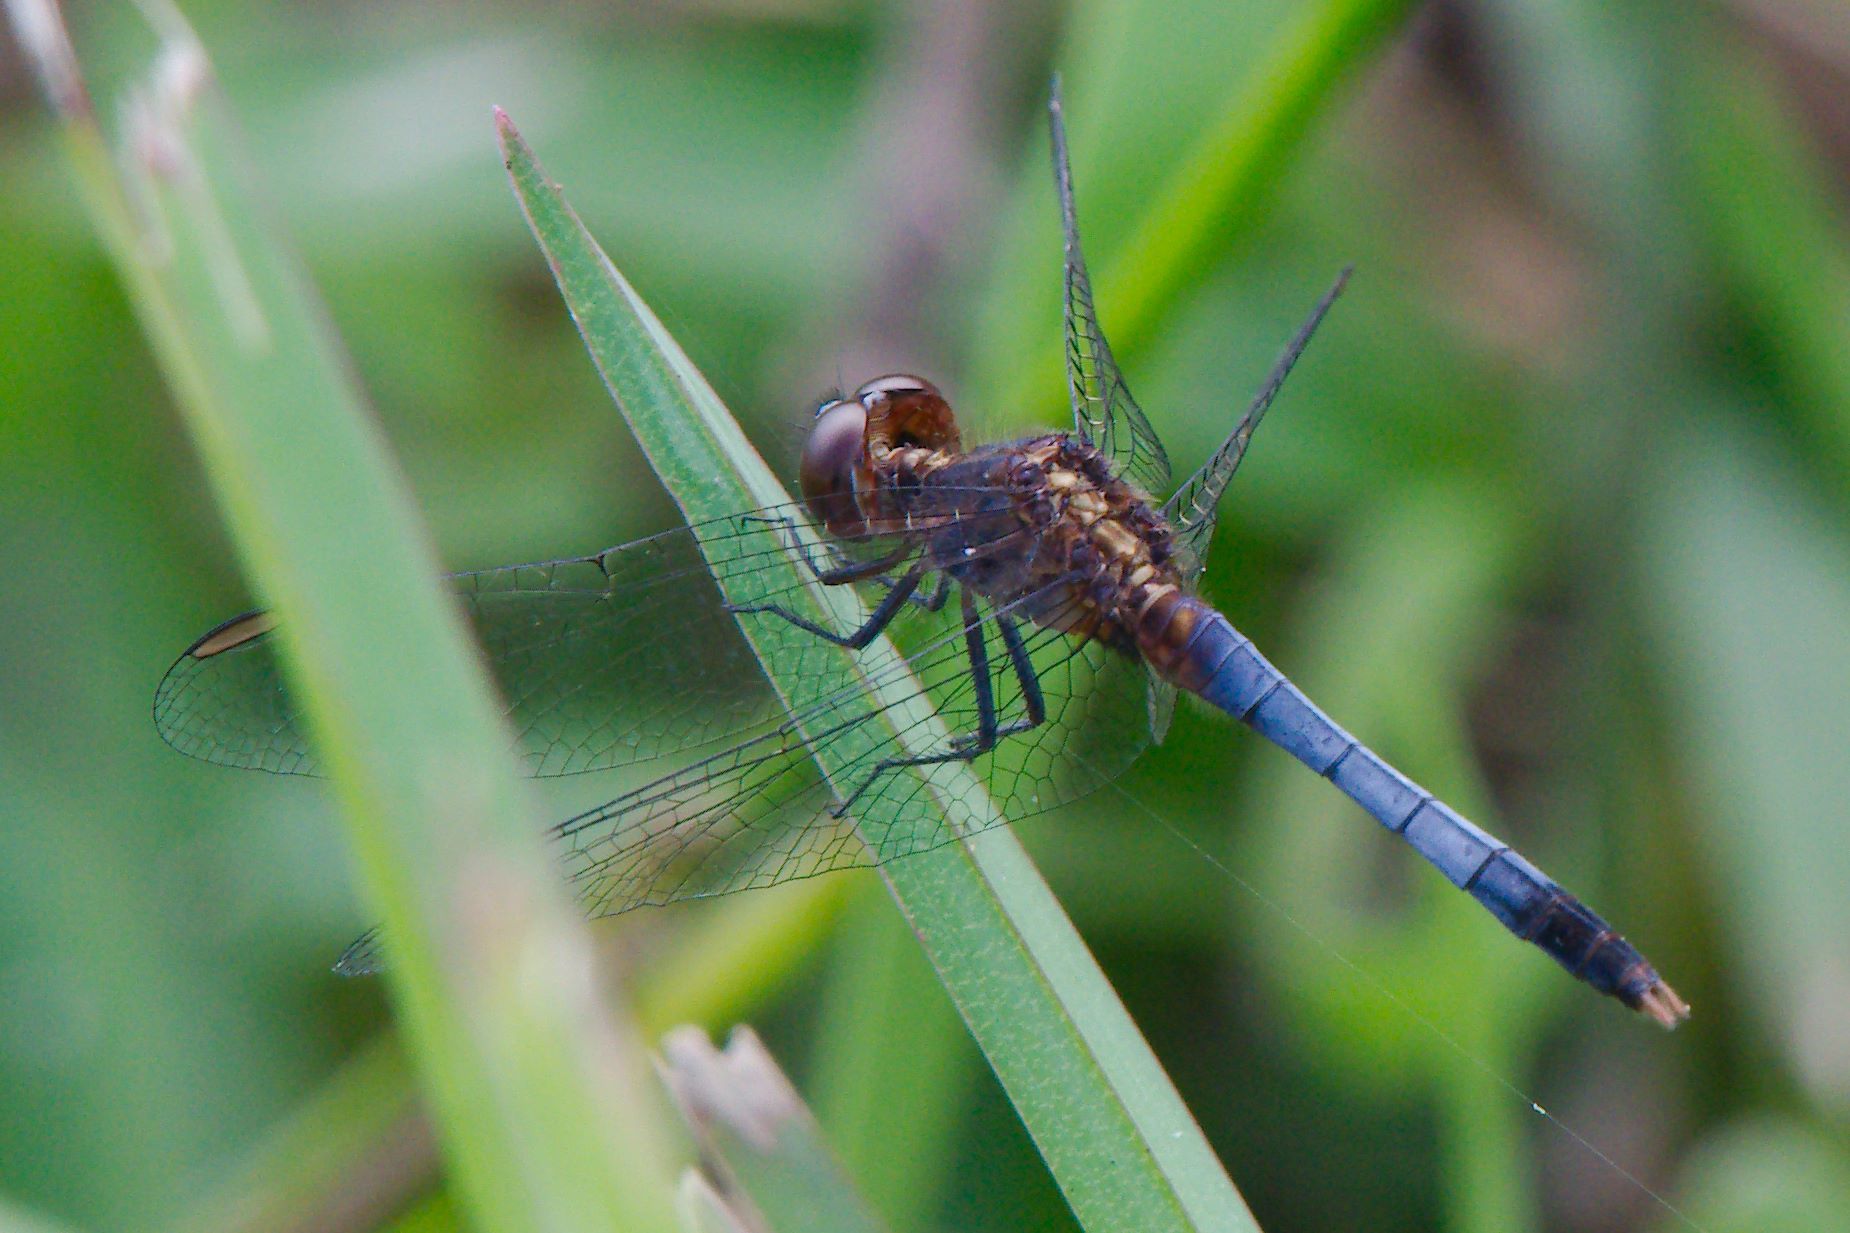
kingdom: Animalia
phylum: Arthropoda
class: Insecta
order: Odonata
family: Libellulidae
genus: Erythrodiplax
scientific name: Erythrodiplax minuscula
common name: Little blue dragonlet
